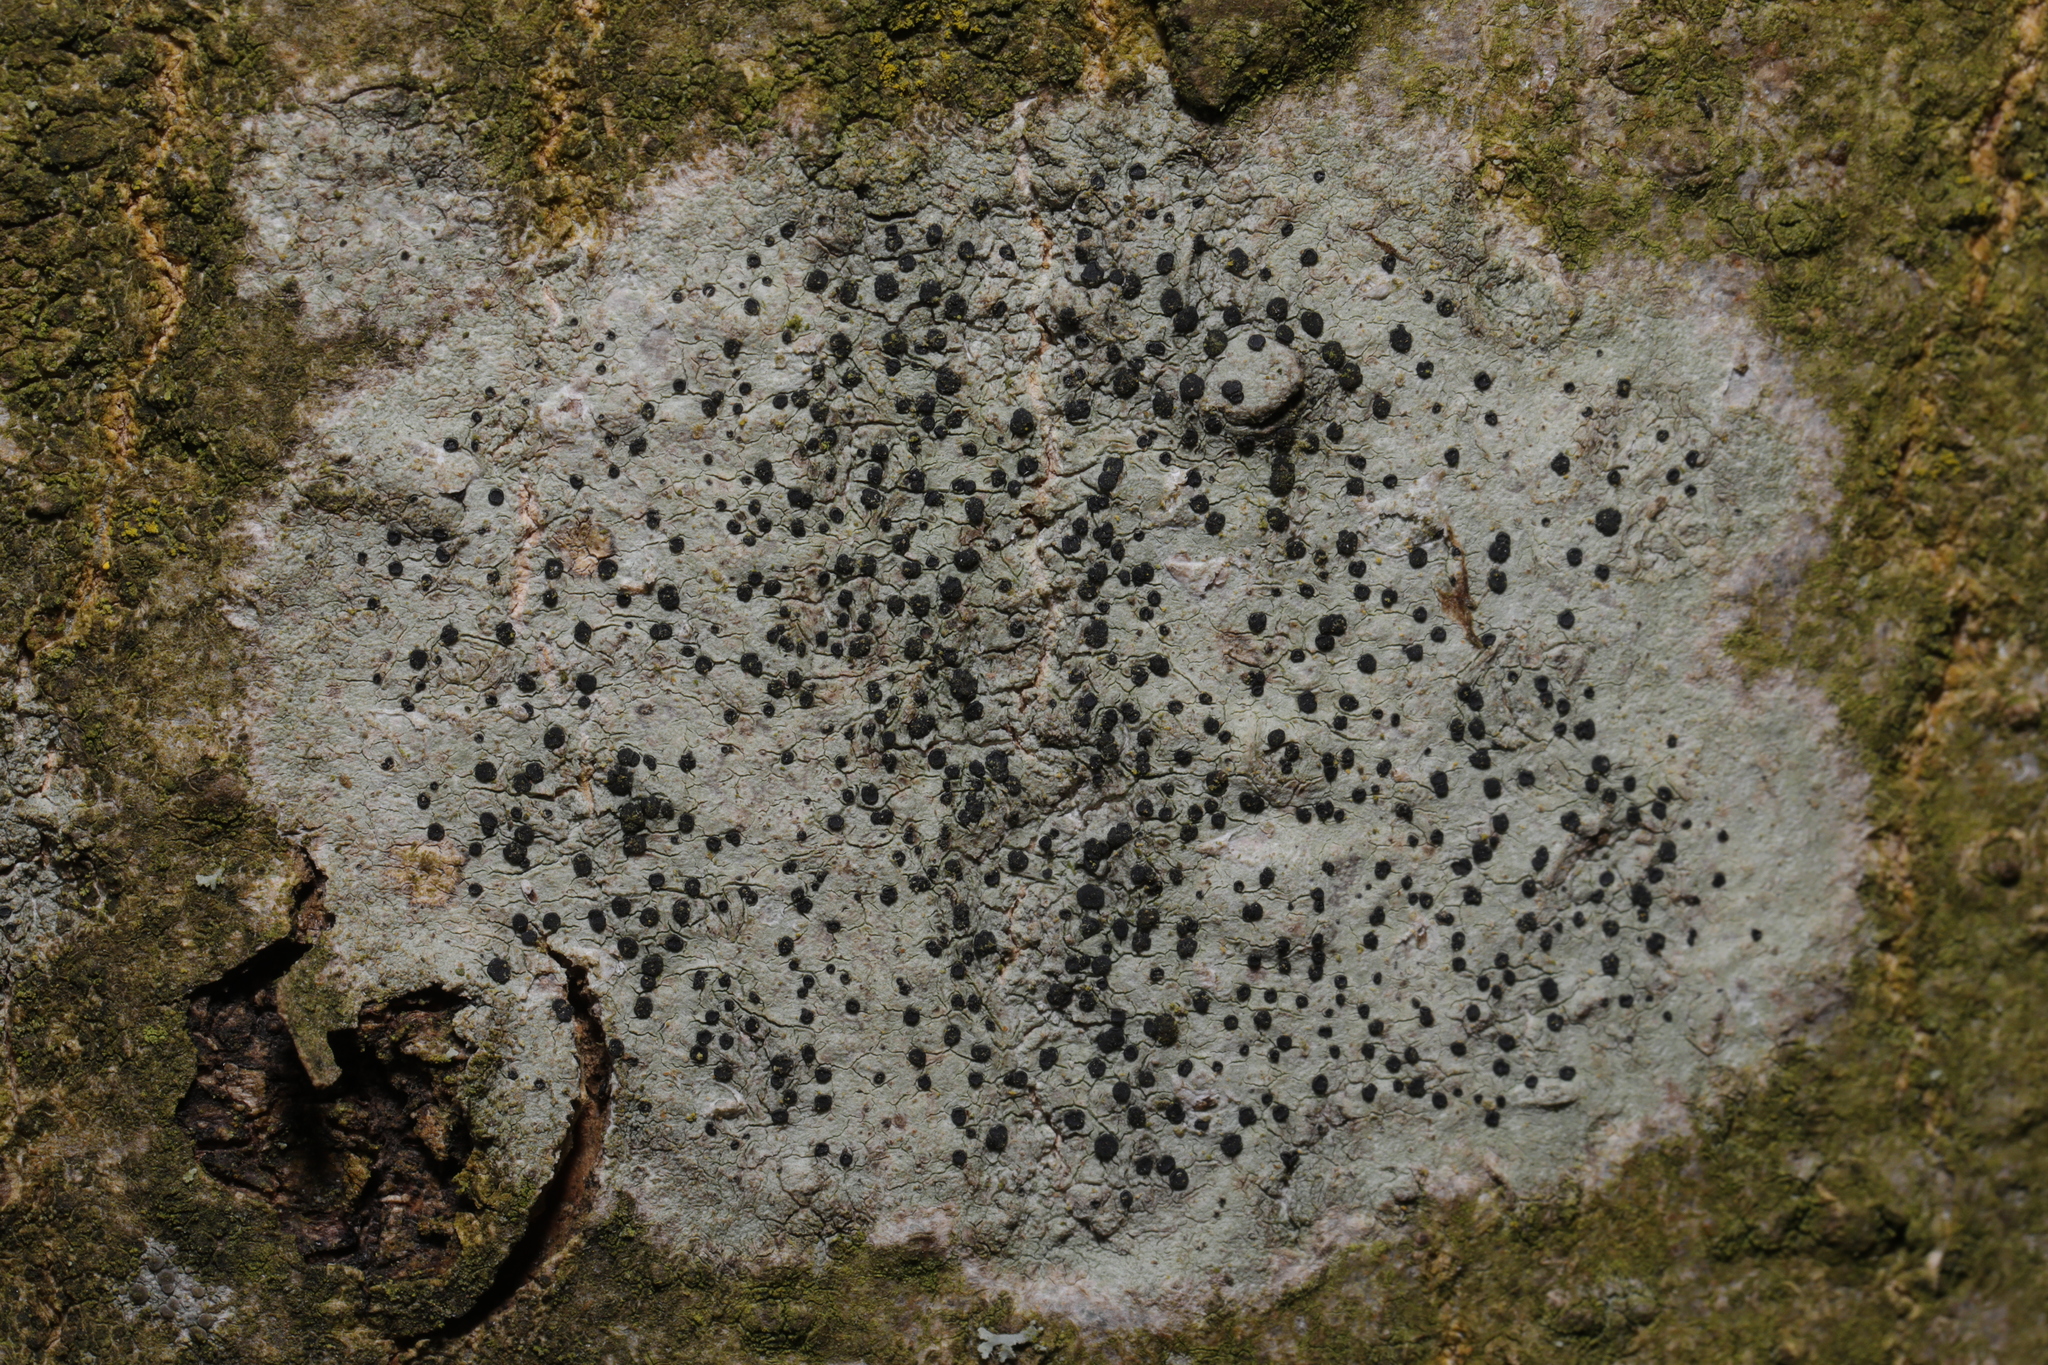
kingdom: Fungi
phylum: Ascomycota
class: Lecanoromycetes
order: Lecanorales
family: Lecanoraceae
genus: Lecidella
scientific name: Lecidella elaeochroma
